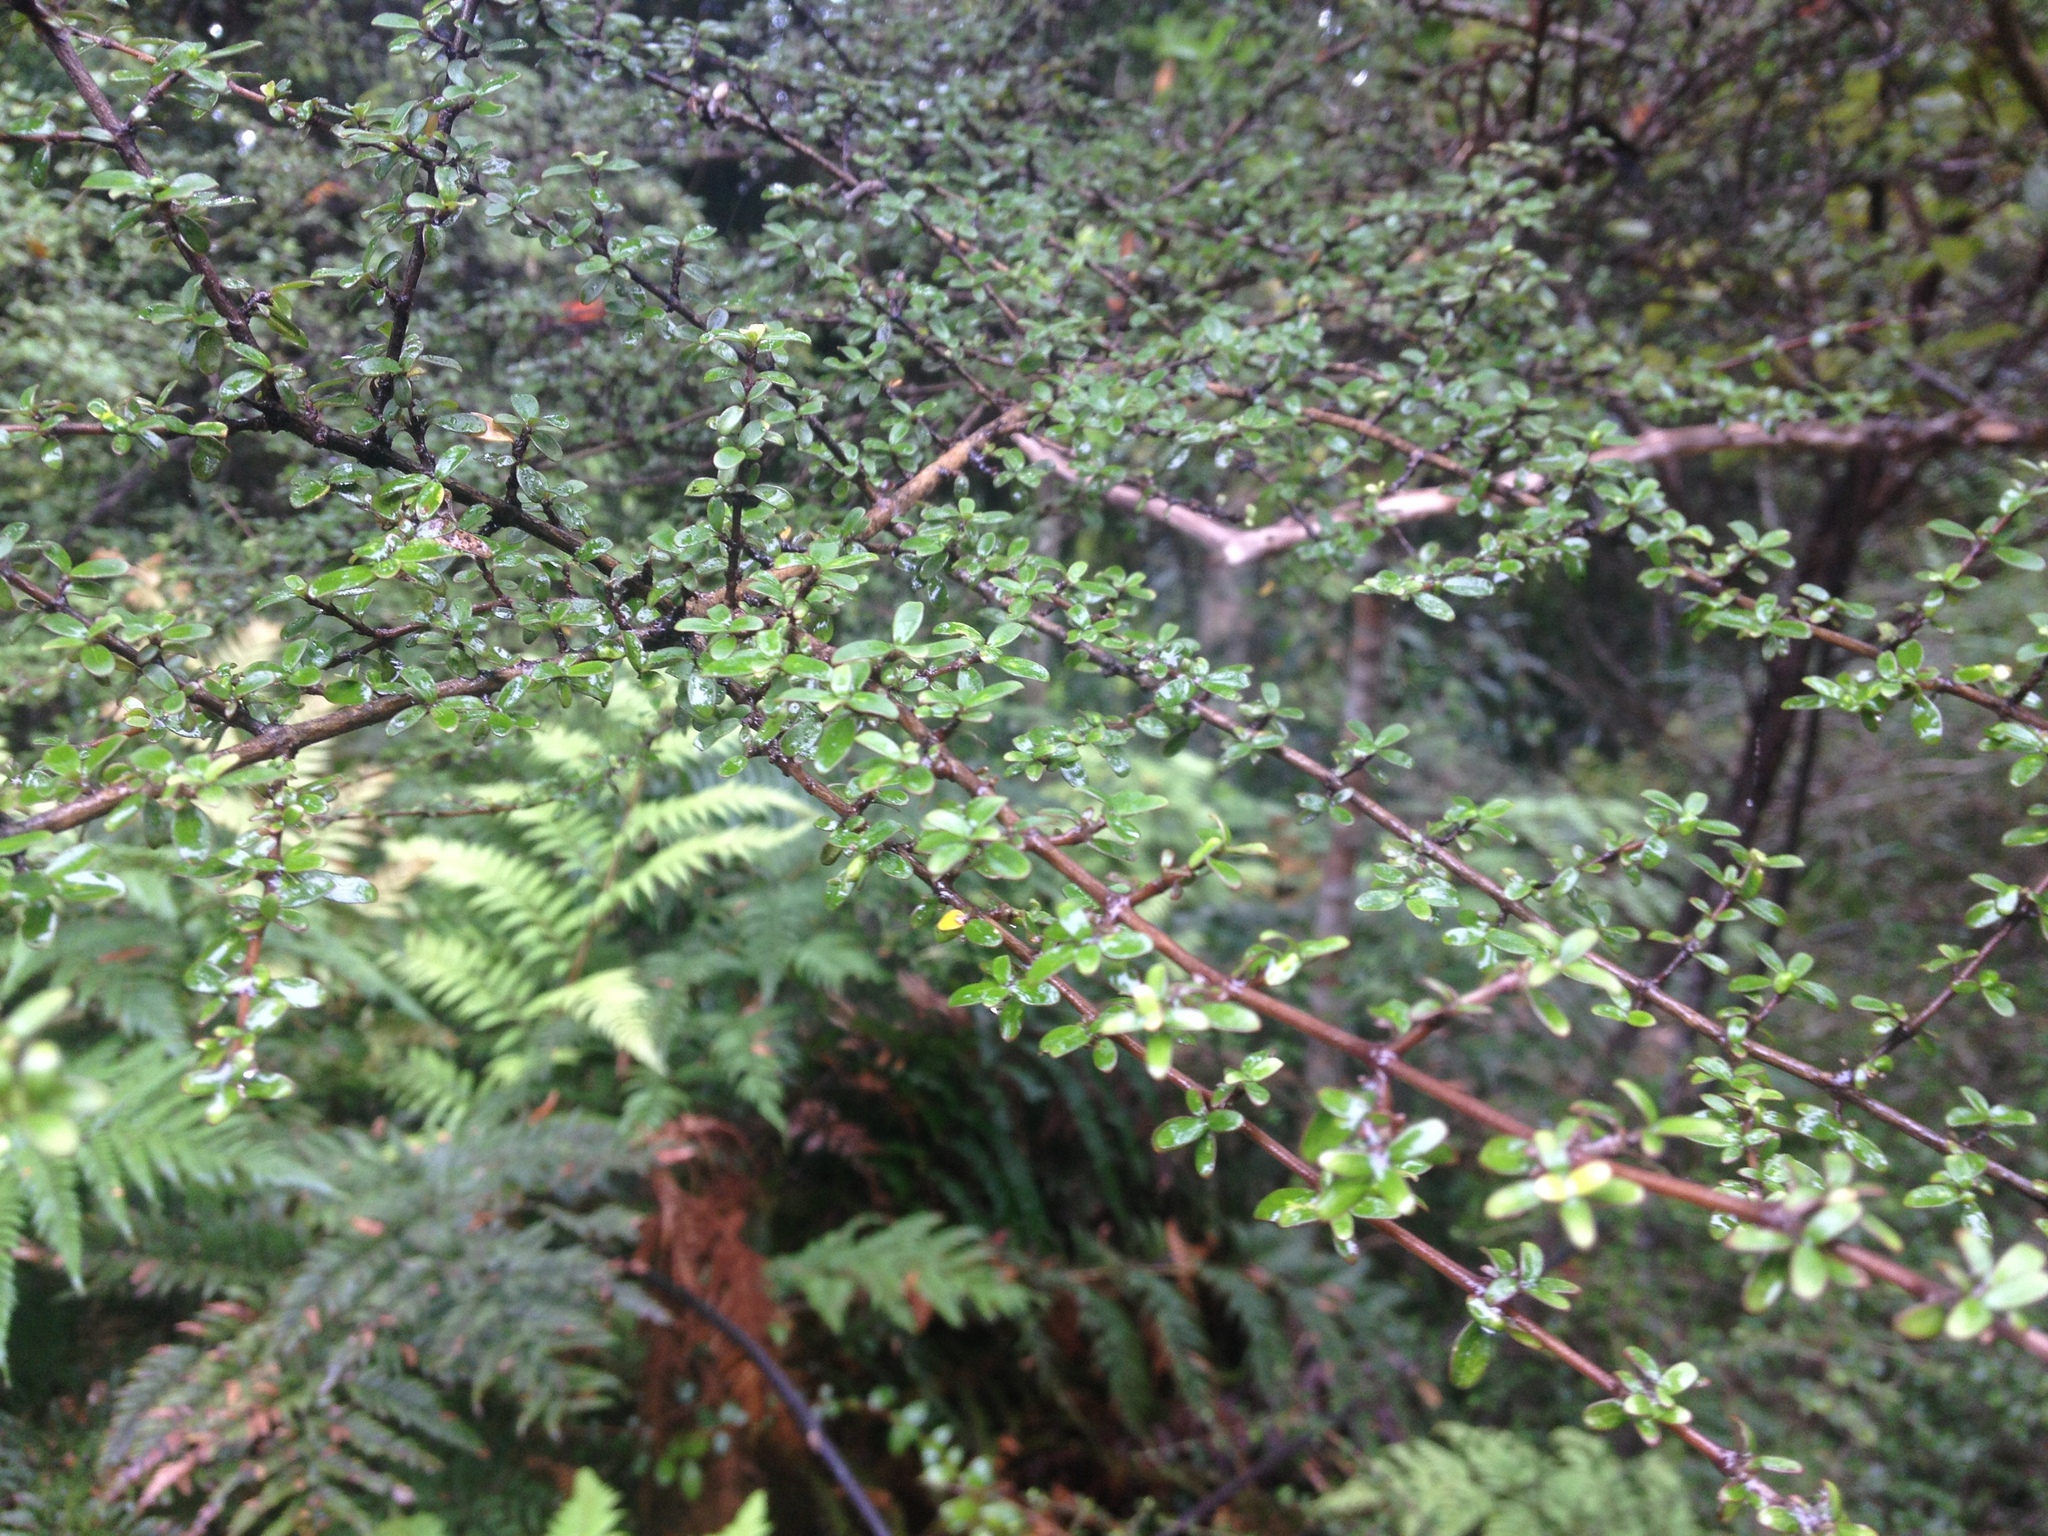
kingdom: Plantae
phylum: Tracheophyta
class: Magnoliopsida
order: Gentianales
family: Rubiaceae
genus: Coprosma
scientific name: Coprosma dumosa
